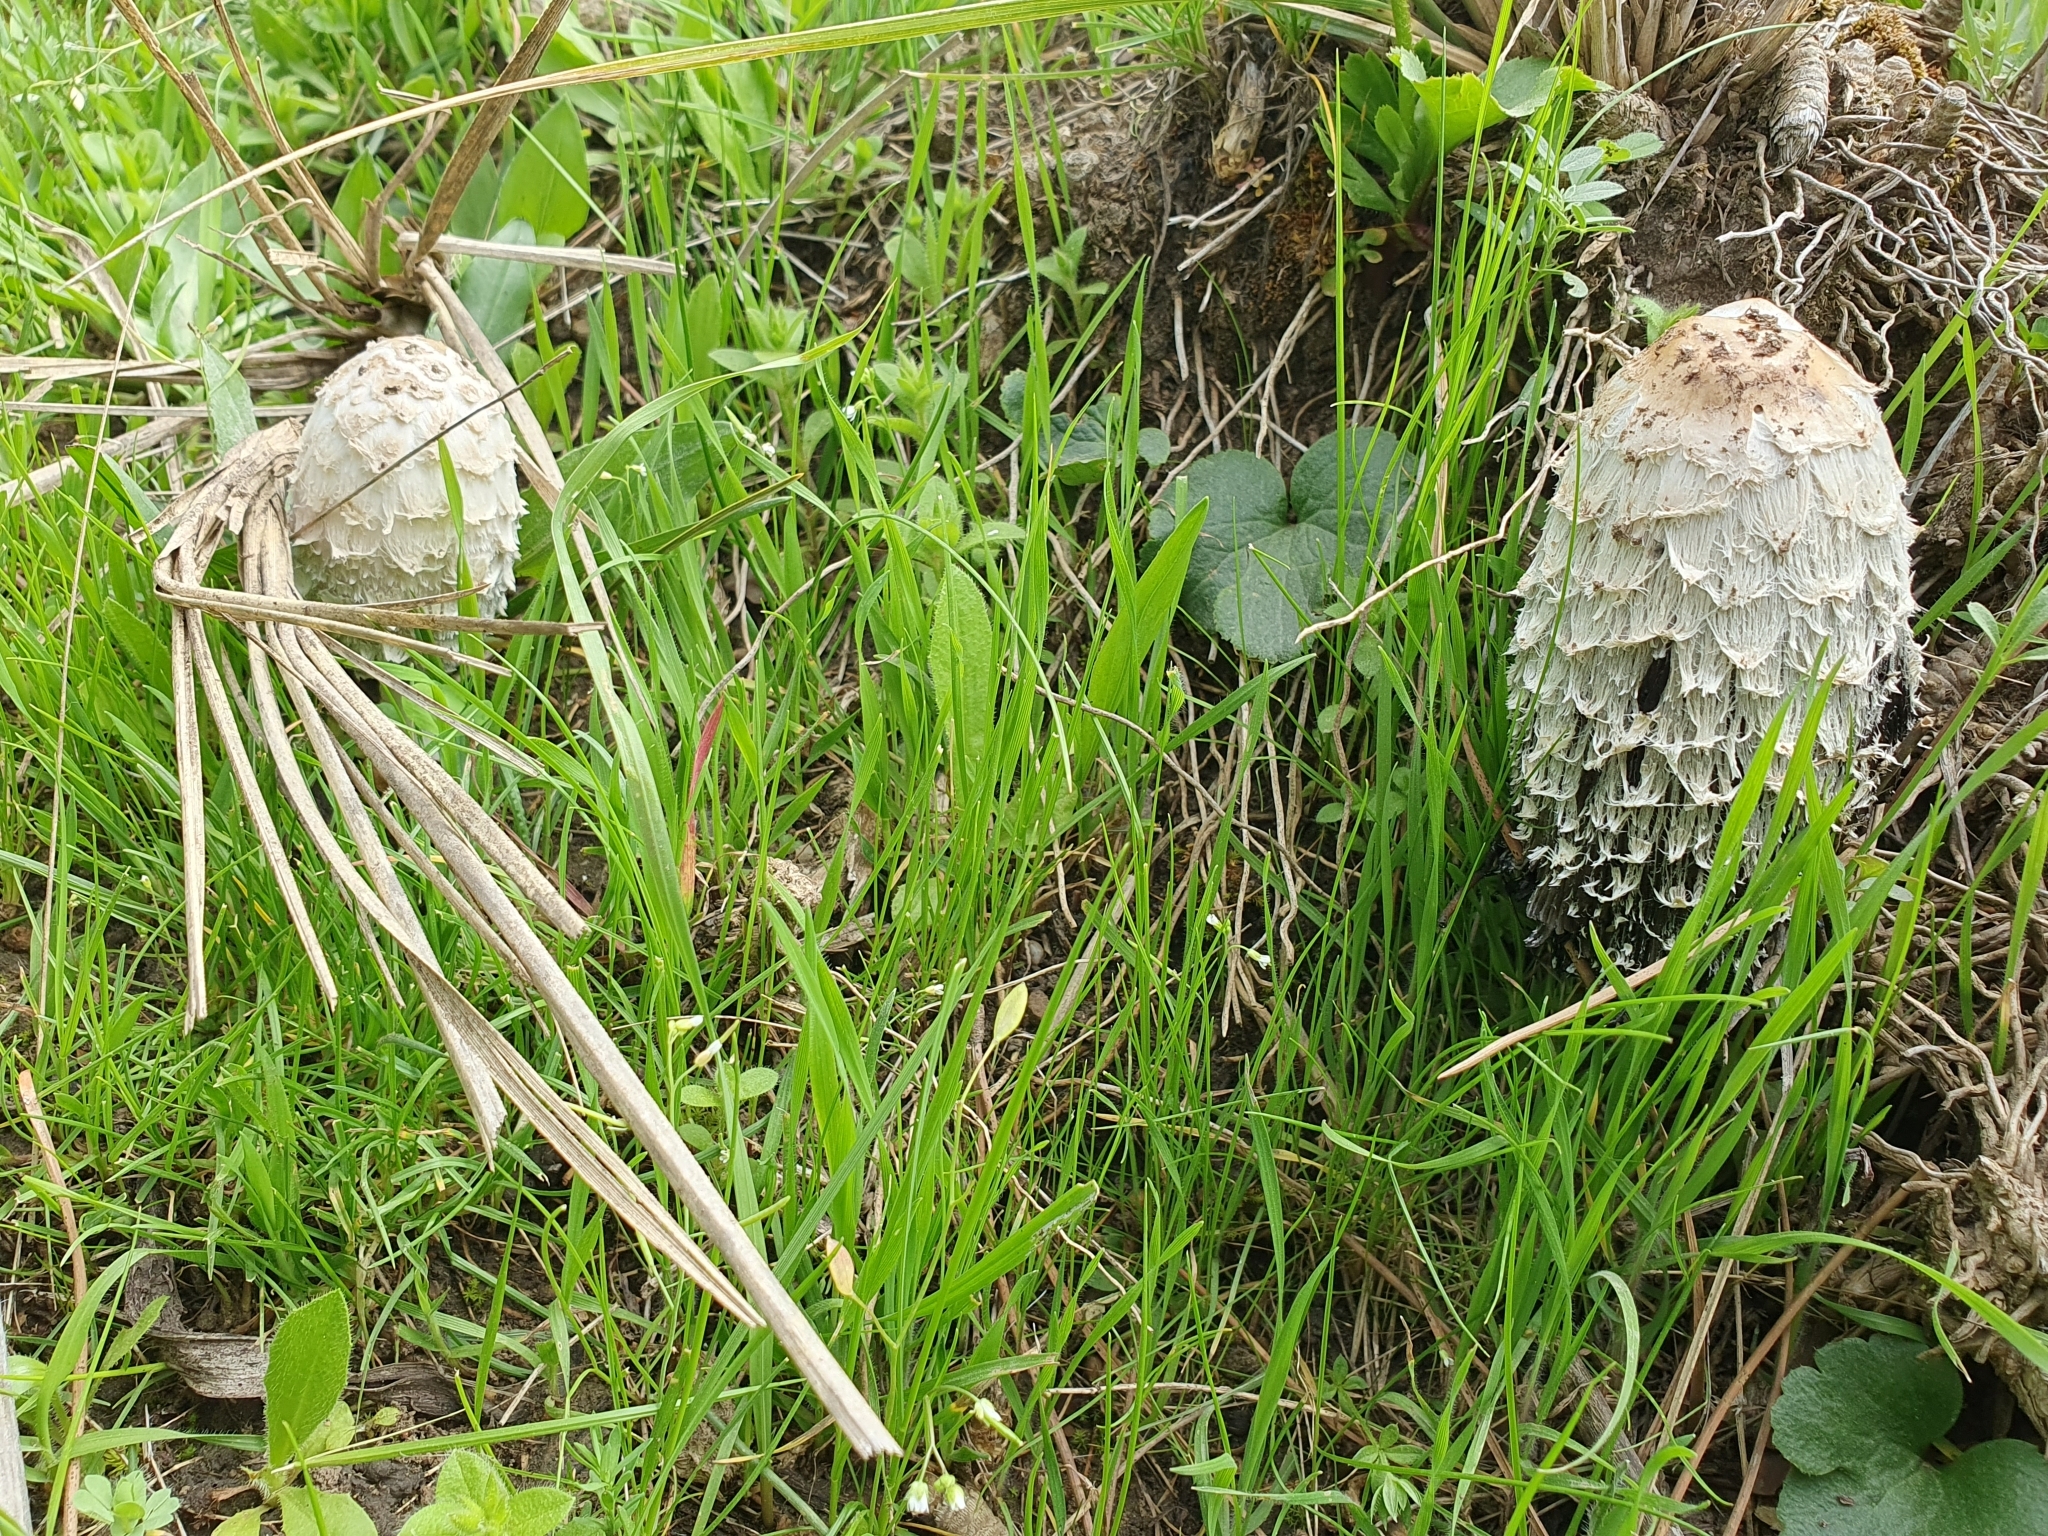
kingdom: Fungi
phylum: Basidiomycota
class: Agaricomycetes
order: Agaricales
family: Agaricaceae
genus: Coprinus
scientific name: Coprinus comatus
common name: Lawyer's wig
